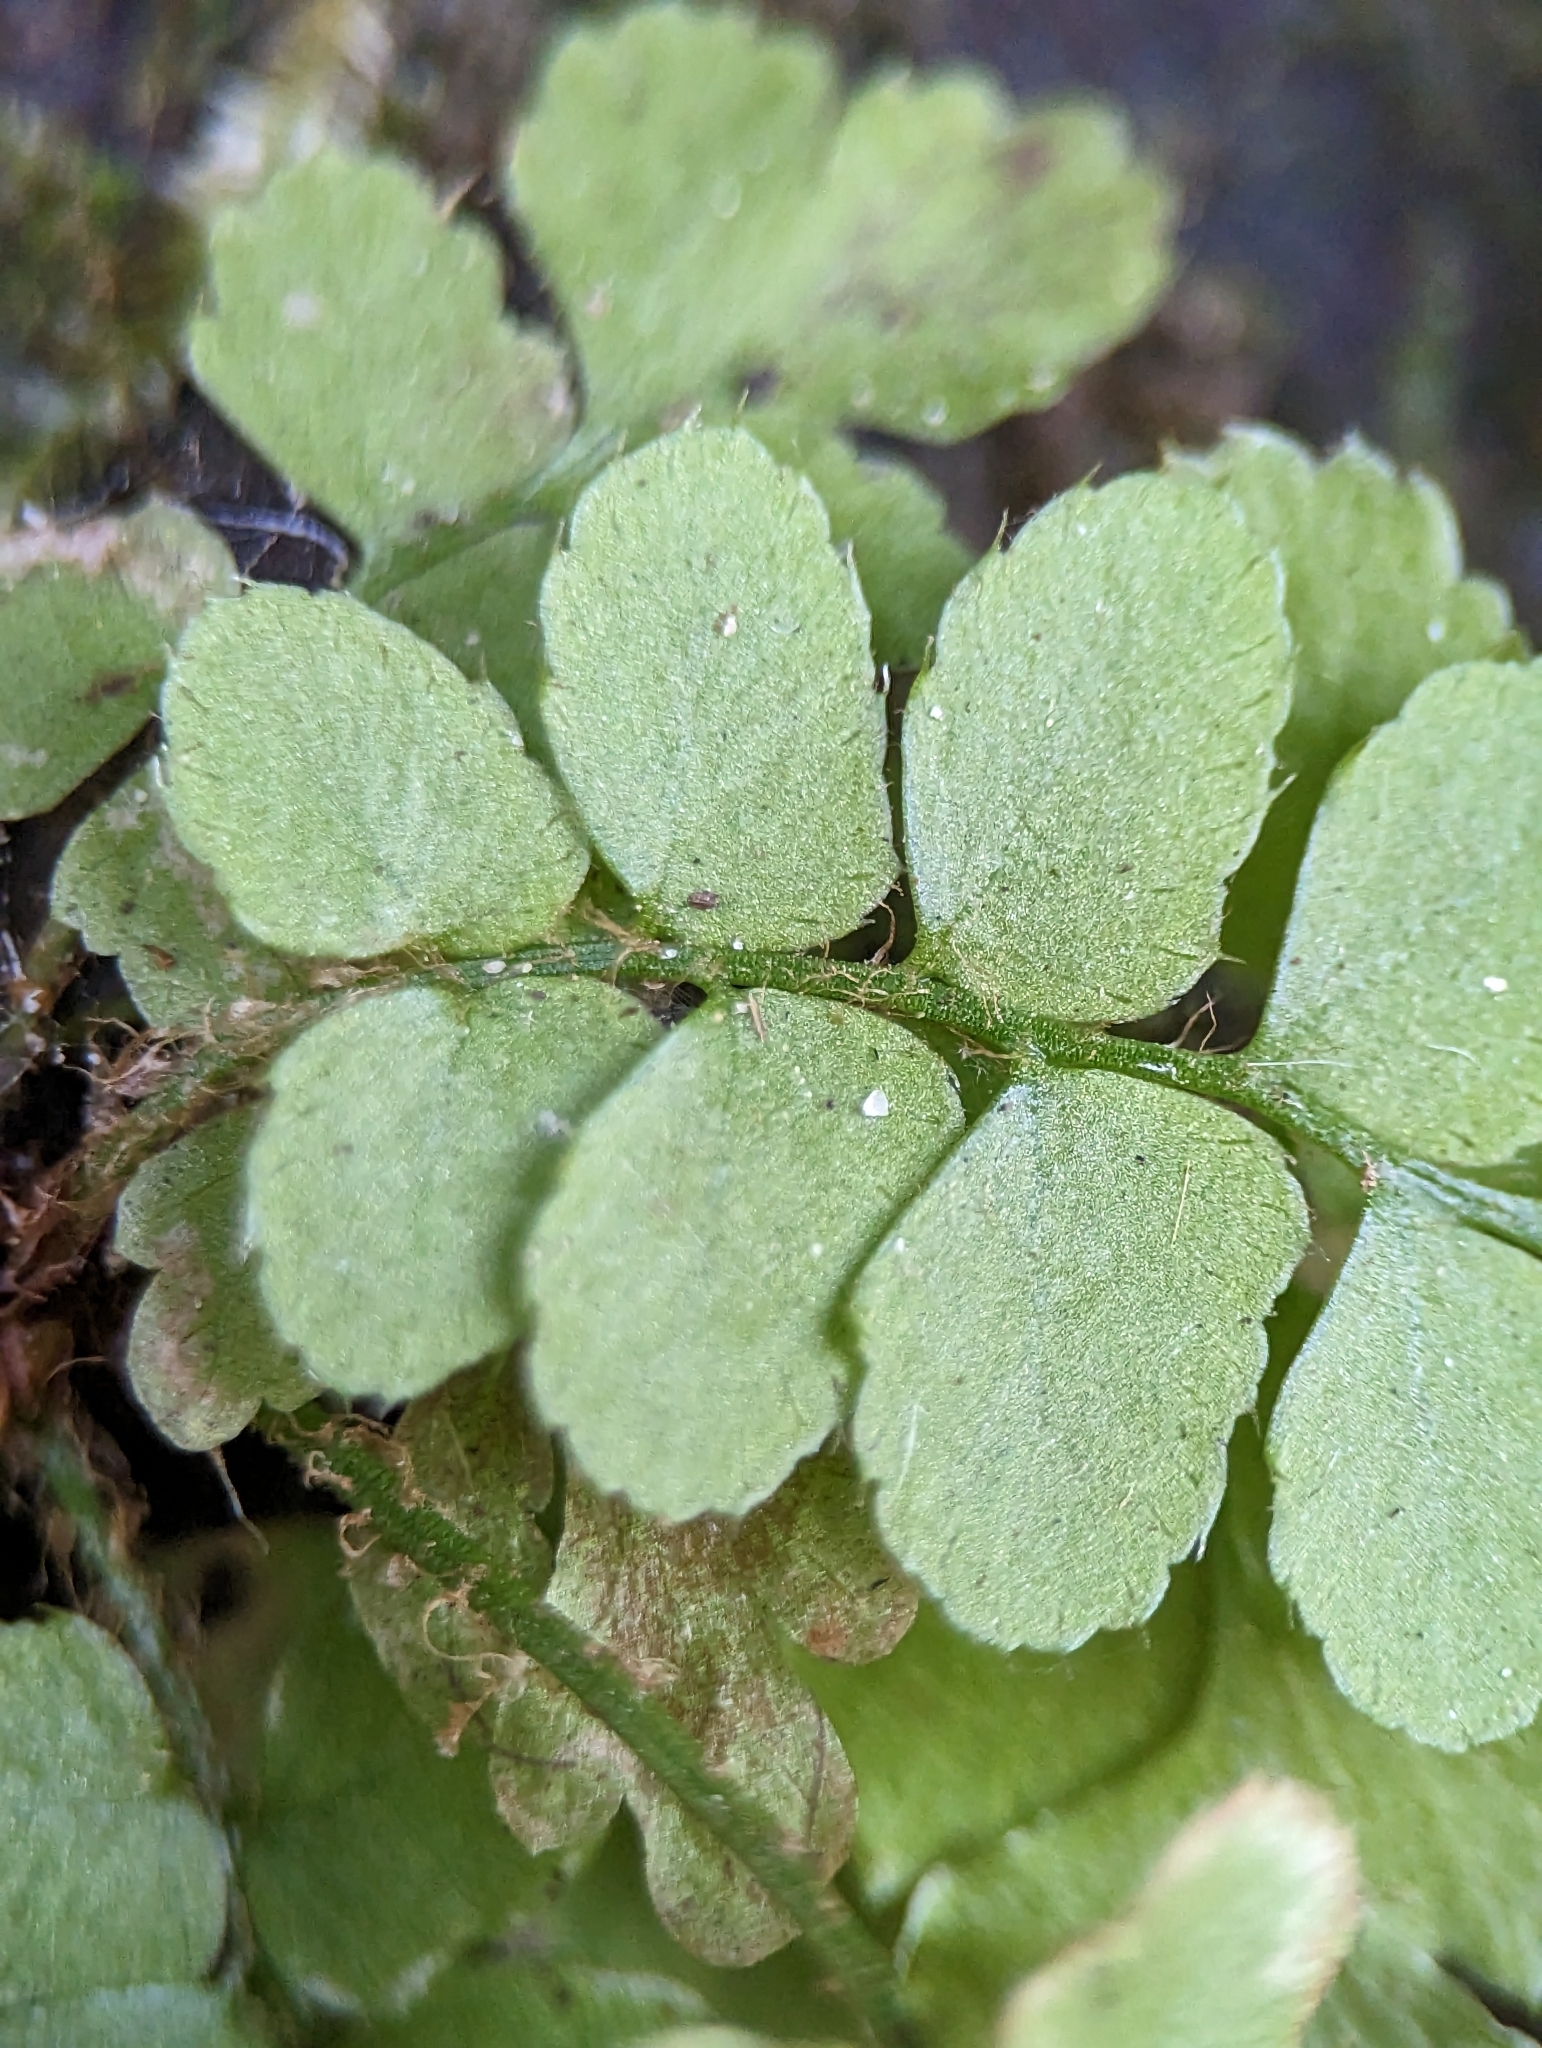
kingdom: Plantae
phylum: Tracheophyta
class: Polypodiopsida
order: Polypodiales
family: Dryopteridaceae
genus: Polystichum
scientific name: Polystichum acrostichoides
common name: Christmas fern
